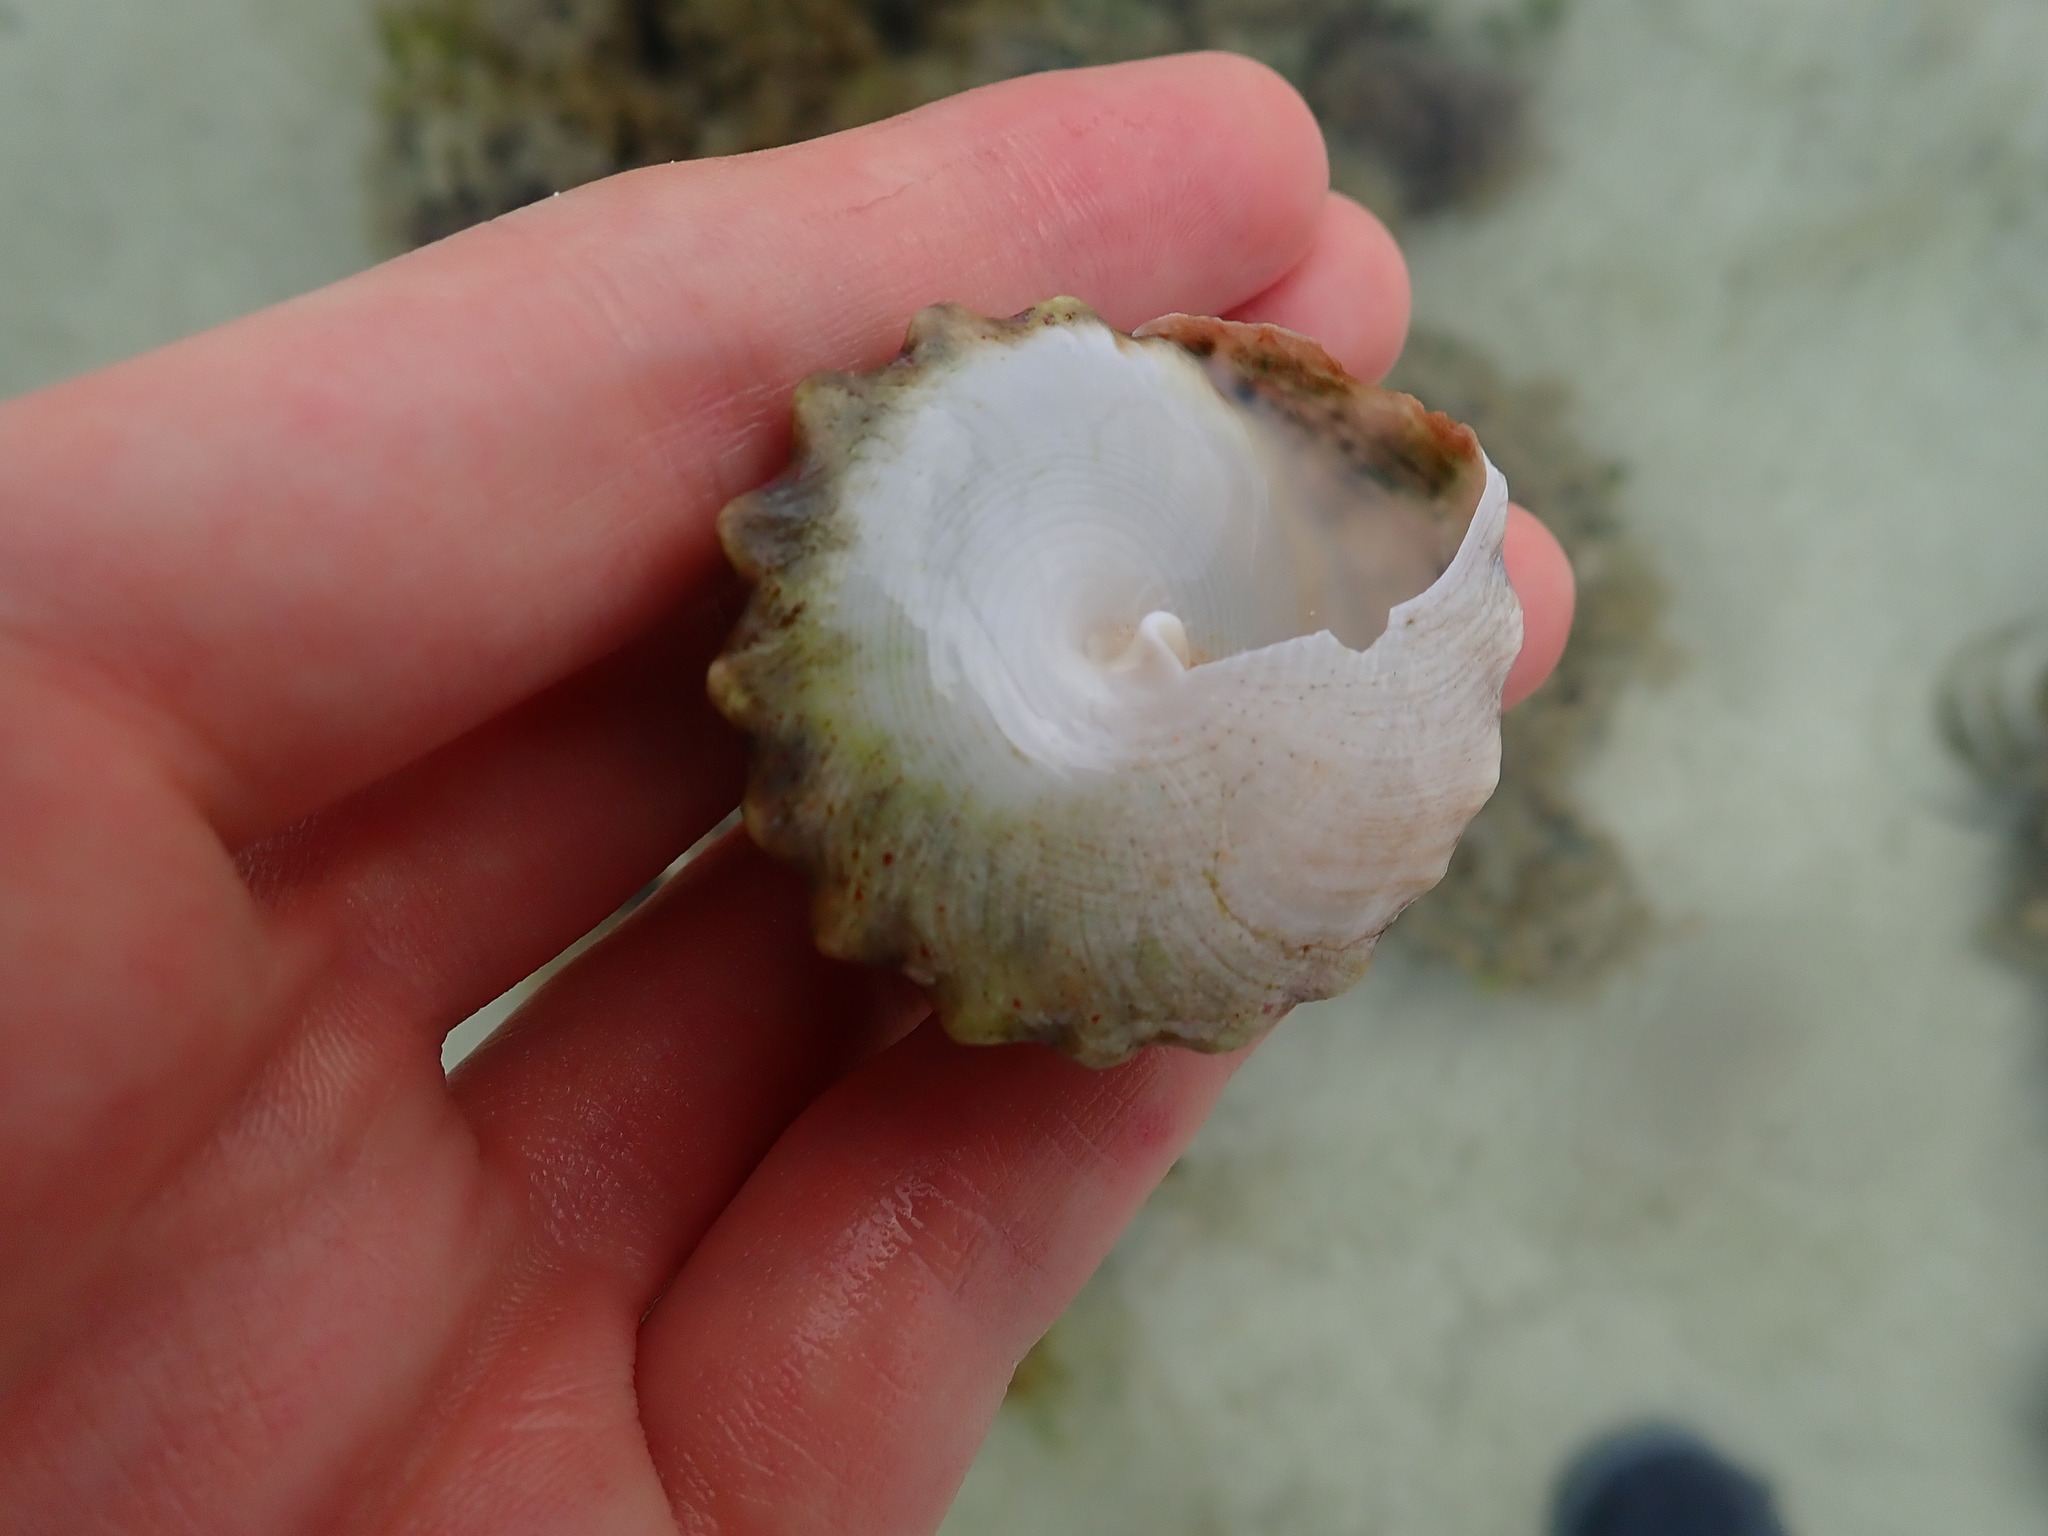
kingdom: Animalia
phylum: Mollusca
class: Gastropoda
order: Trochida
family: Tegulidae
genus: Tectus
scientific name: Tectus fenestratus
